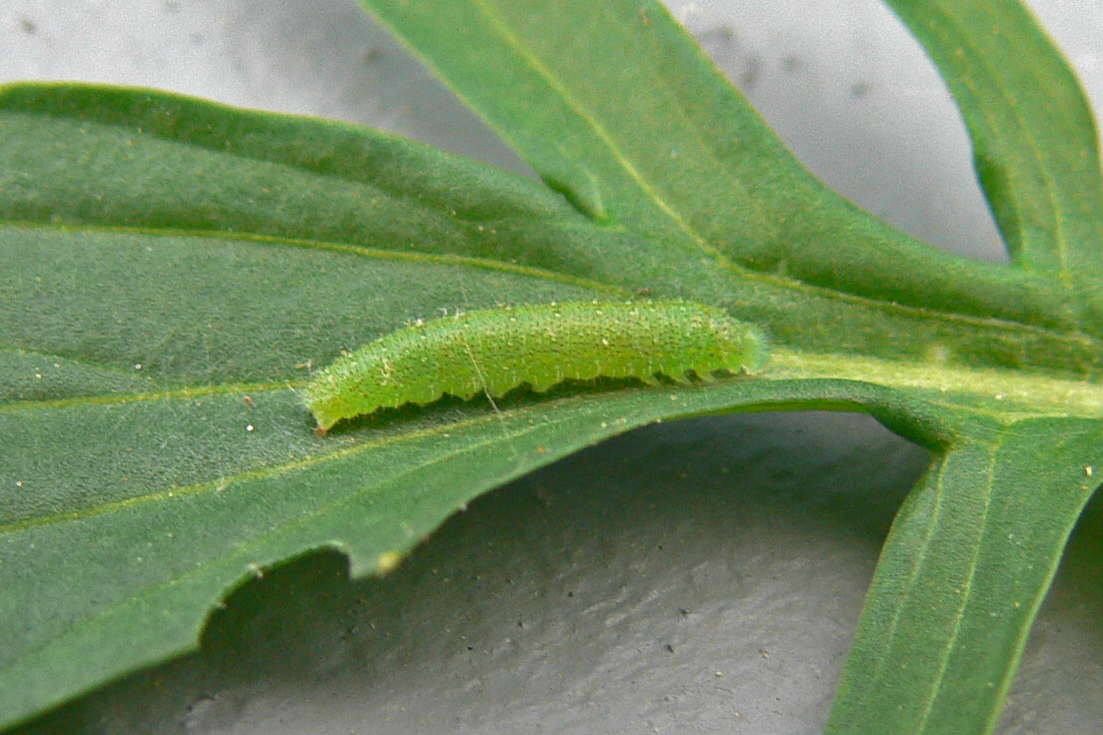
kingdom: Animalia
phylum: Arthropoda
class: Insecta
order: Lepidoptera
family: Pieridae
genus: Pieris
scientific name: Pieris rapae
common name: Small white
